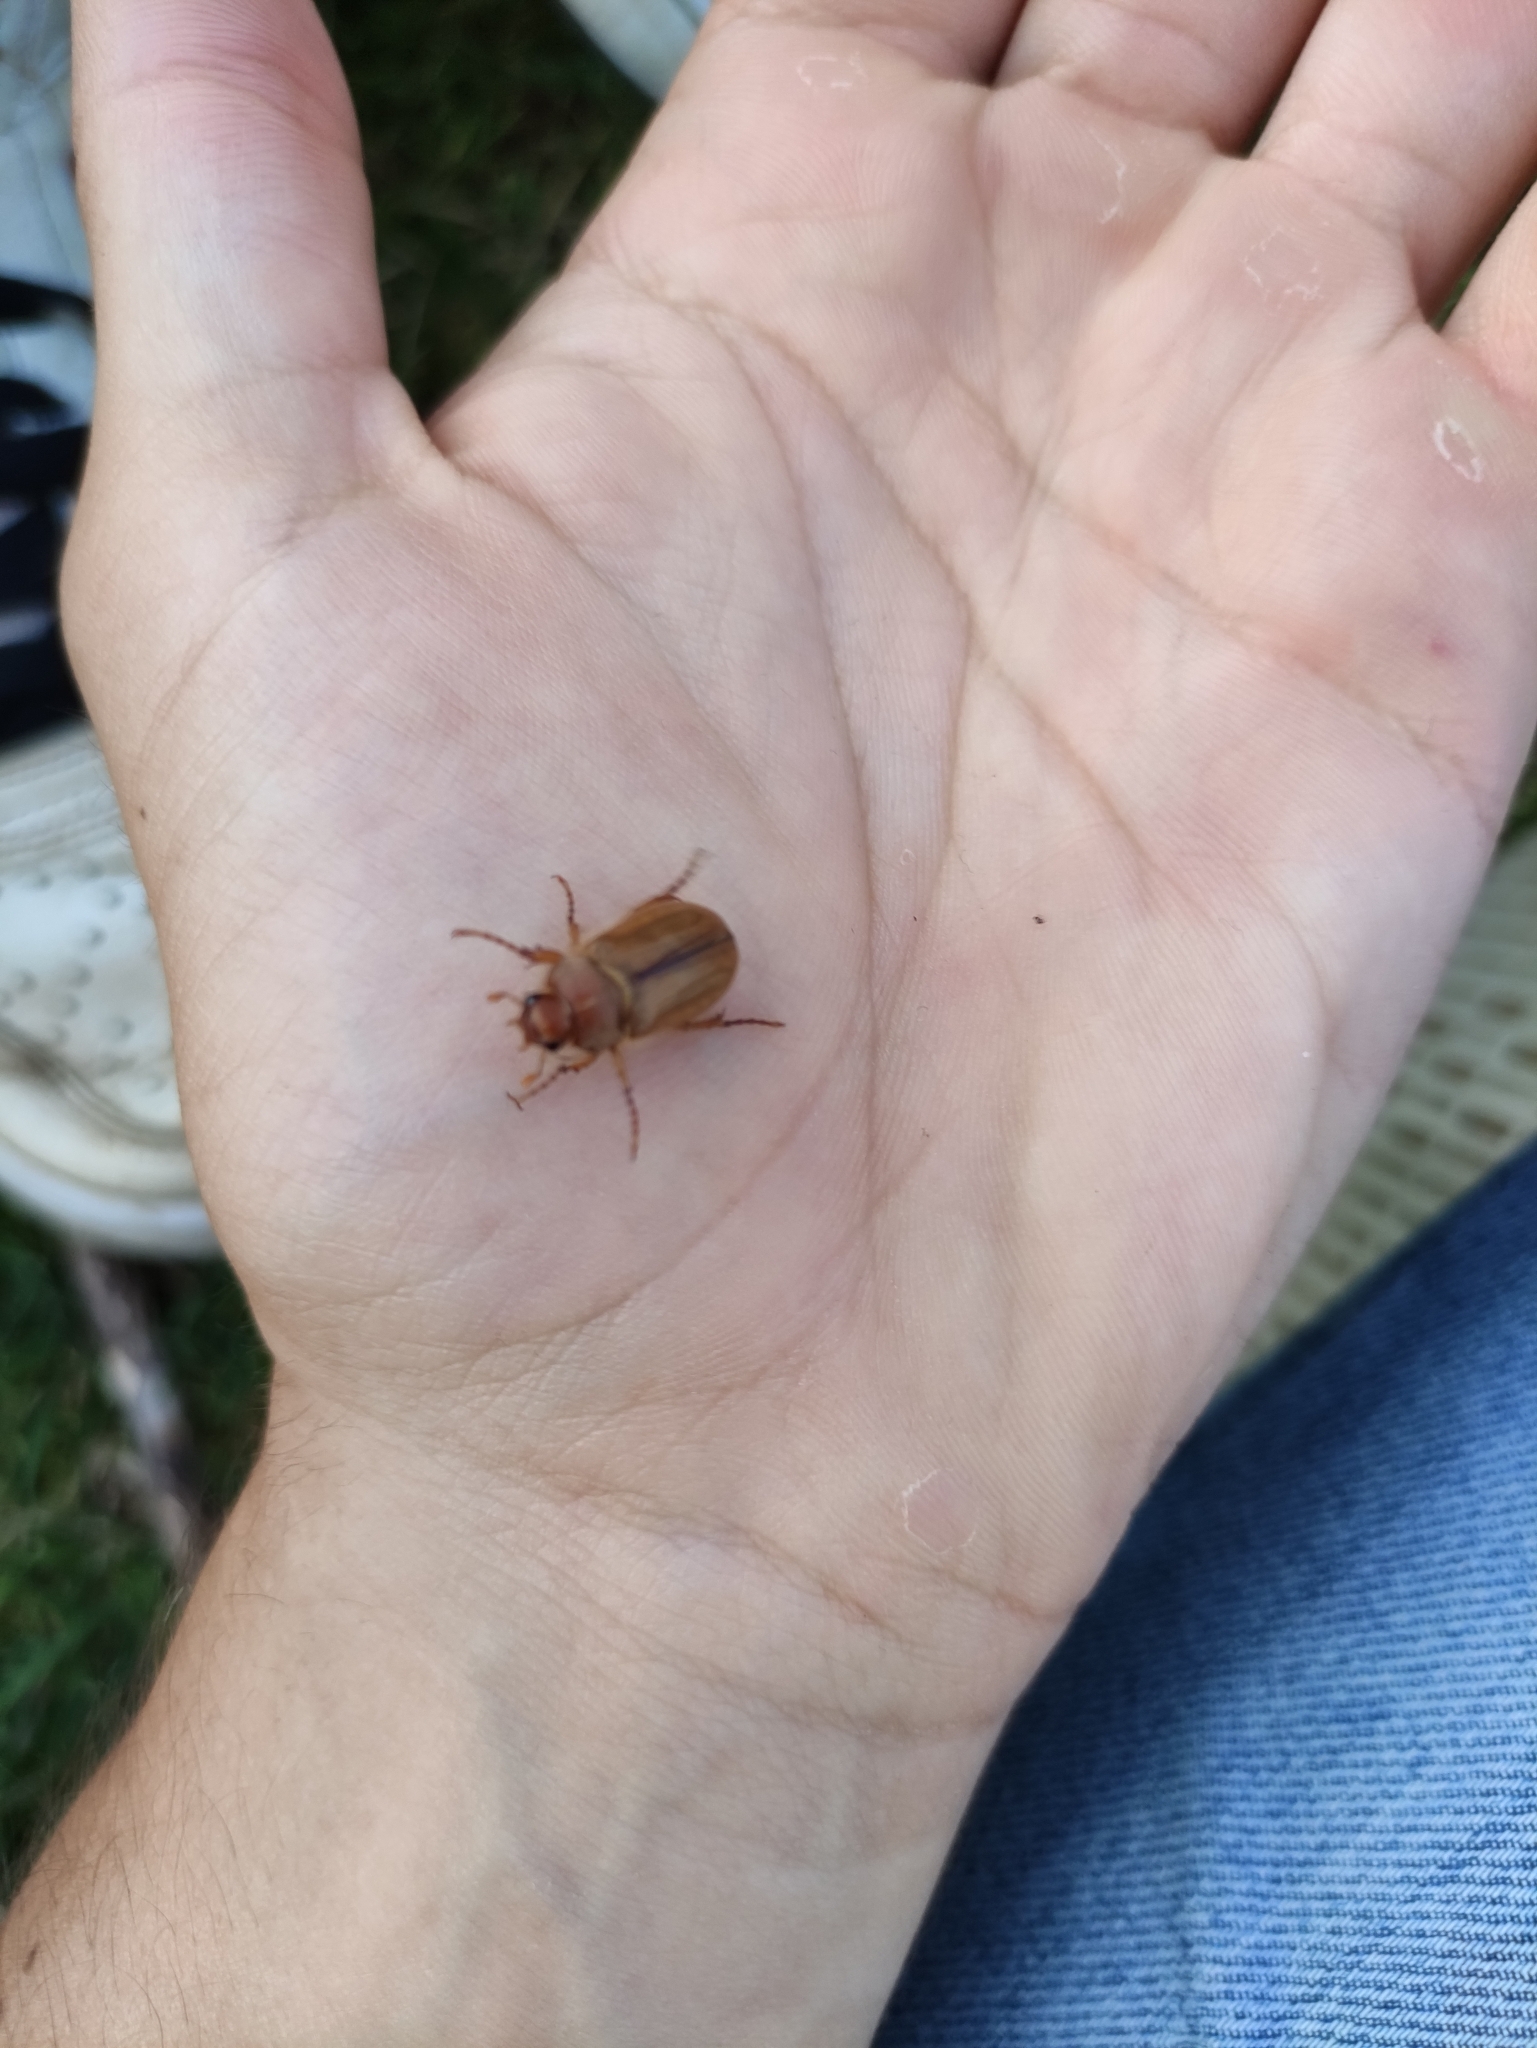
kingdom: Animalia
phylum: Arthropoda
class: Insecta
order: Coleoptera
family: Scarabaeidae
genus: Amphimallon
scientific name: Amphimallon solstitiale
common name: Summer chafer
